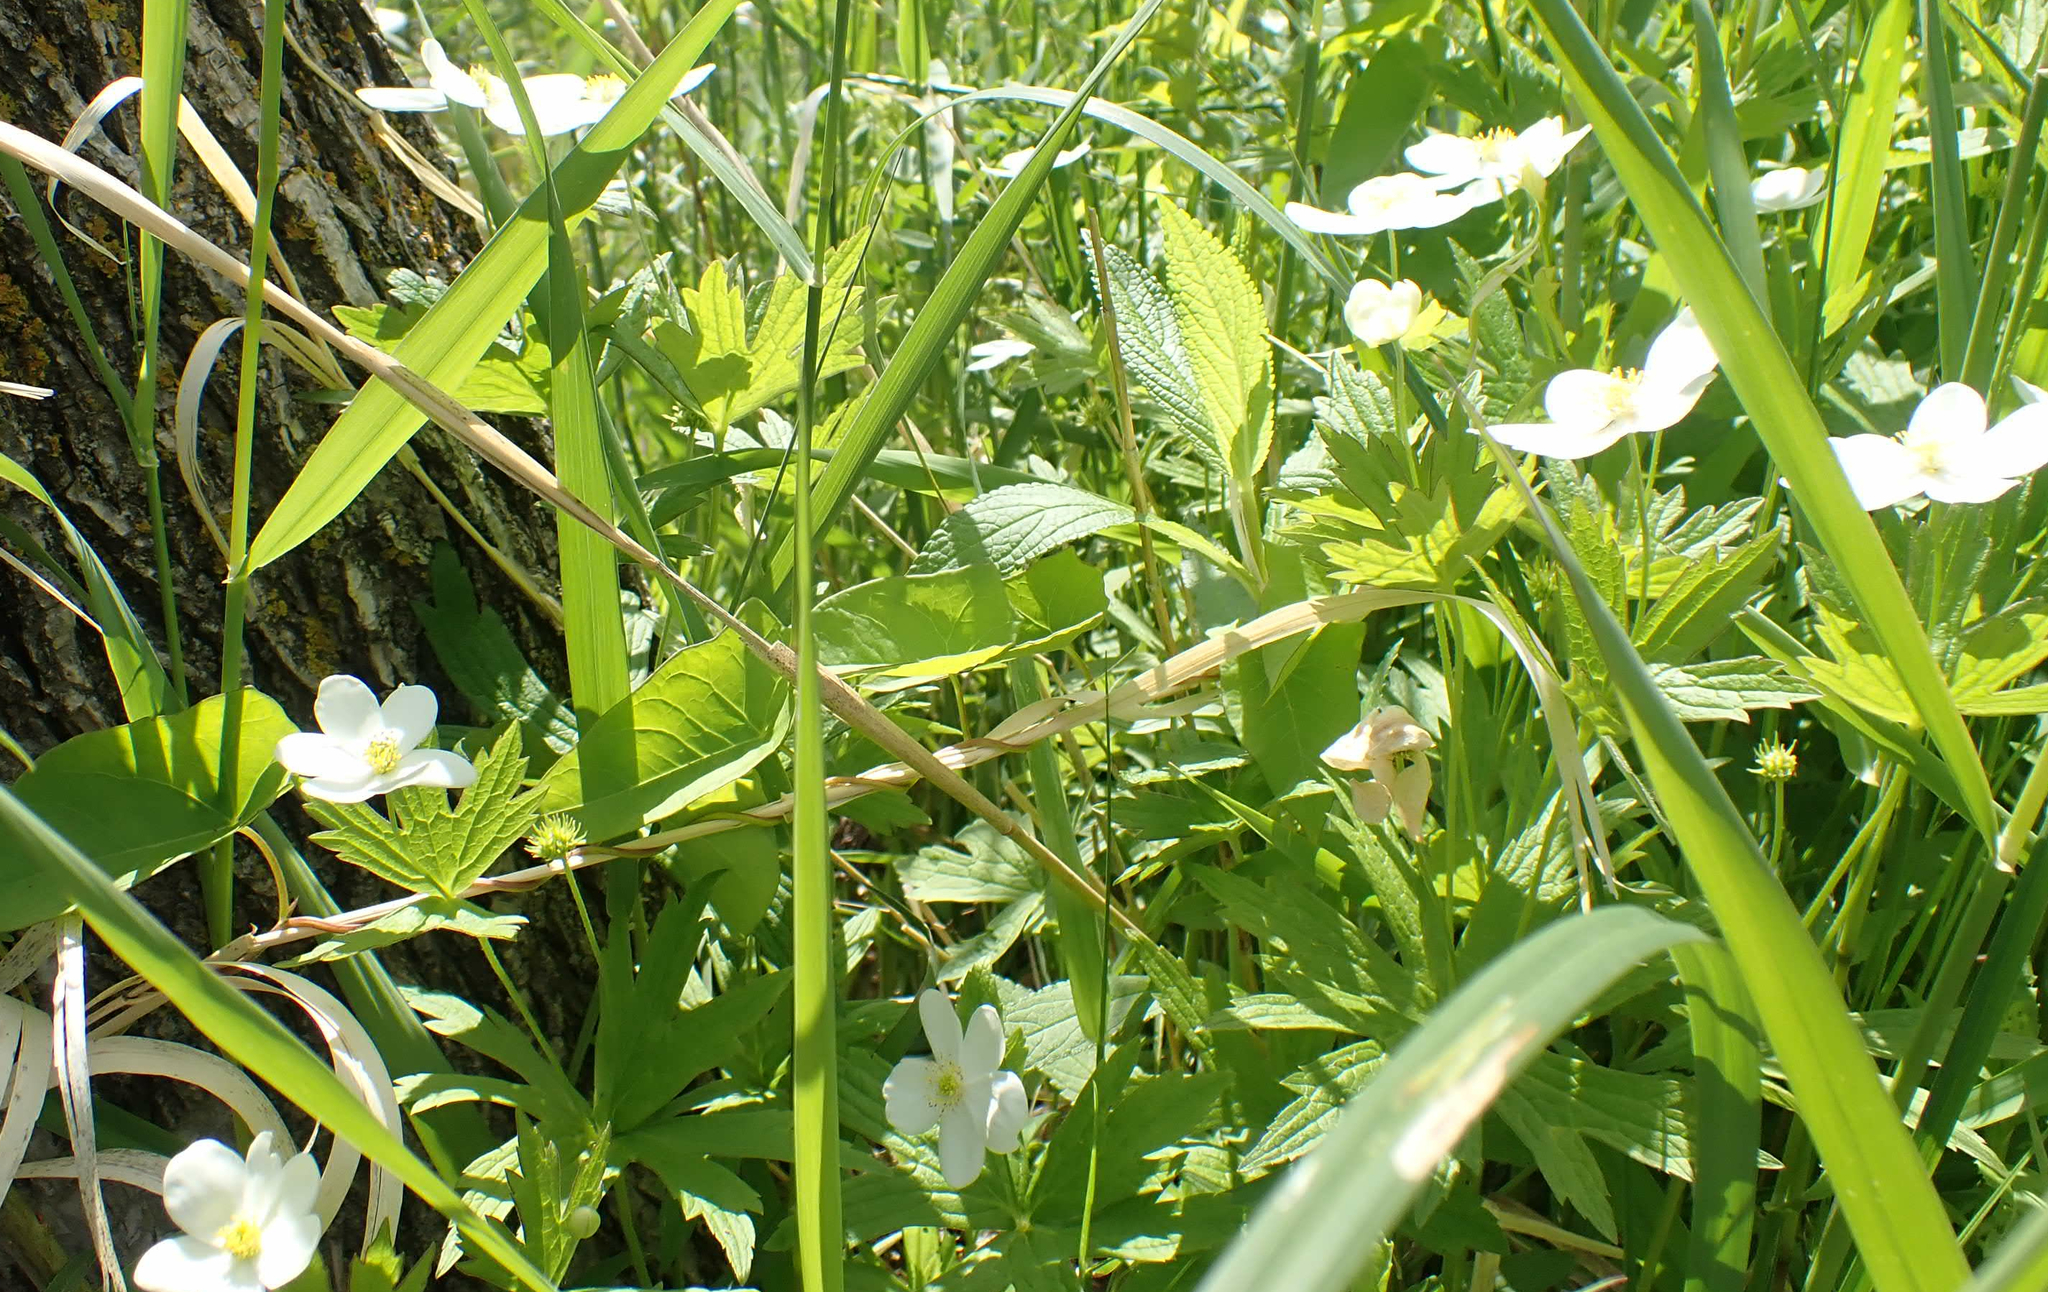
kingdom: Plantae
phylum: Tracheophyta
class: Magnoliopsida
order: Ranunculales
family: Ranunculaceae
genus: Anemonastrum
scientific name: Anemonastrum canadense
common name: Canada anemone
